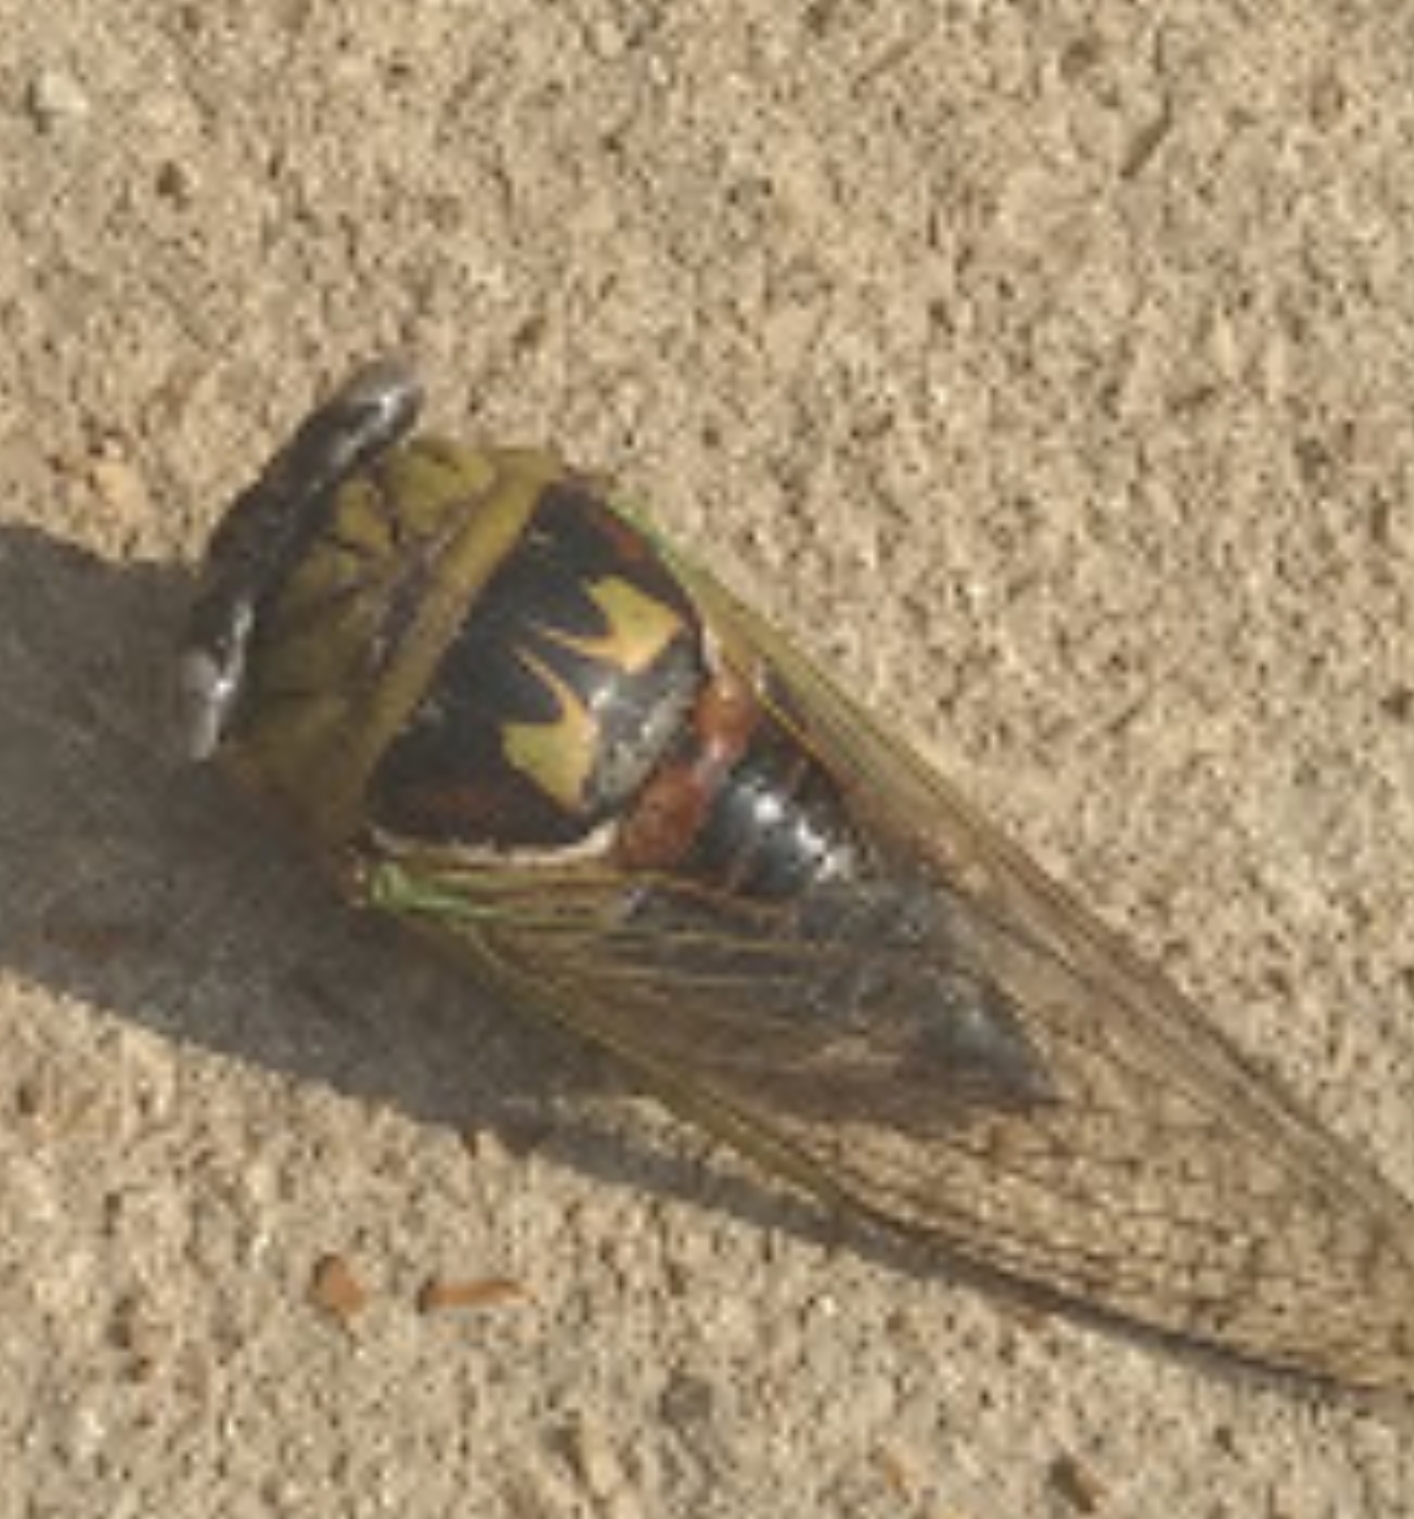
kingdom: Animalia
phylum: Arthropoda
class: Insecta
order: Hemiptera
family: Cicadidae
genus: Megatibicen
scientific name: Megatibicen pronotalis
